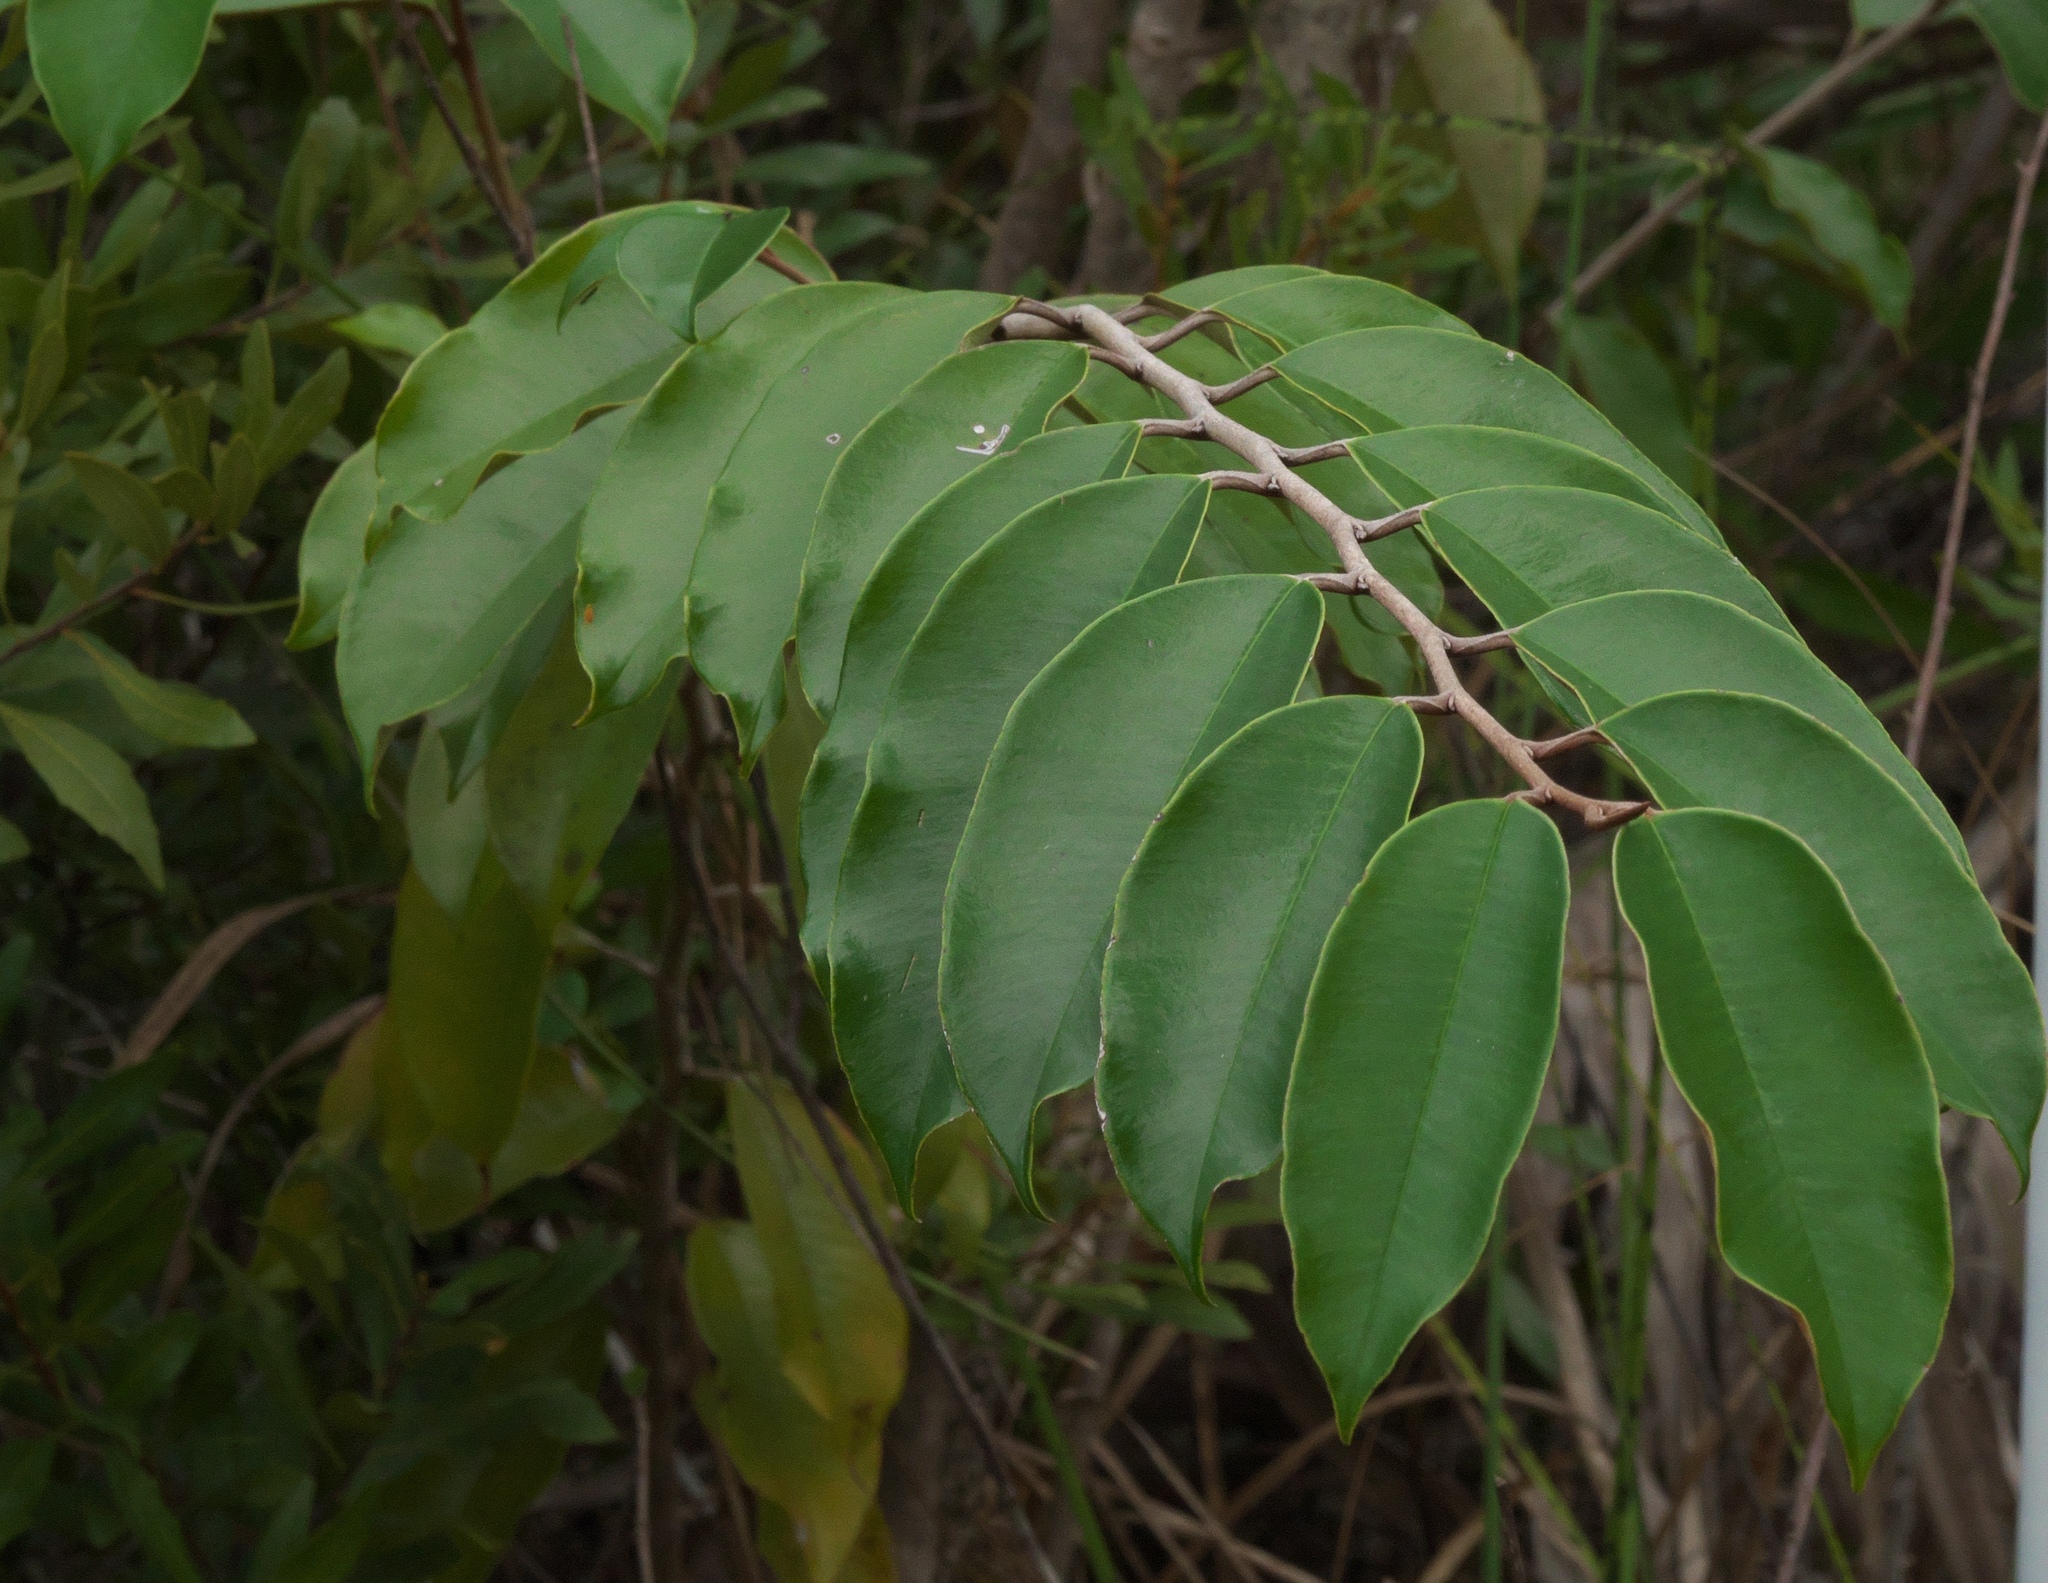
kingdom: Plantae
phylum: Tracheophyta
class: Magnoliopsida
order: Ericales
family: Sapotaceae
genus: Chrysophyllum
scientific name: Chrysophyllum oliviforme
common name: Satinleaf
